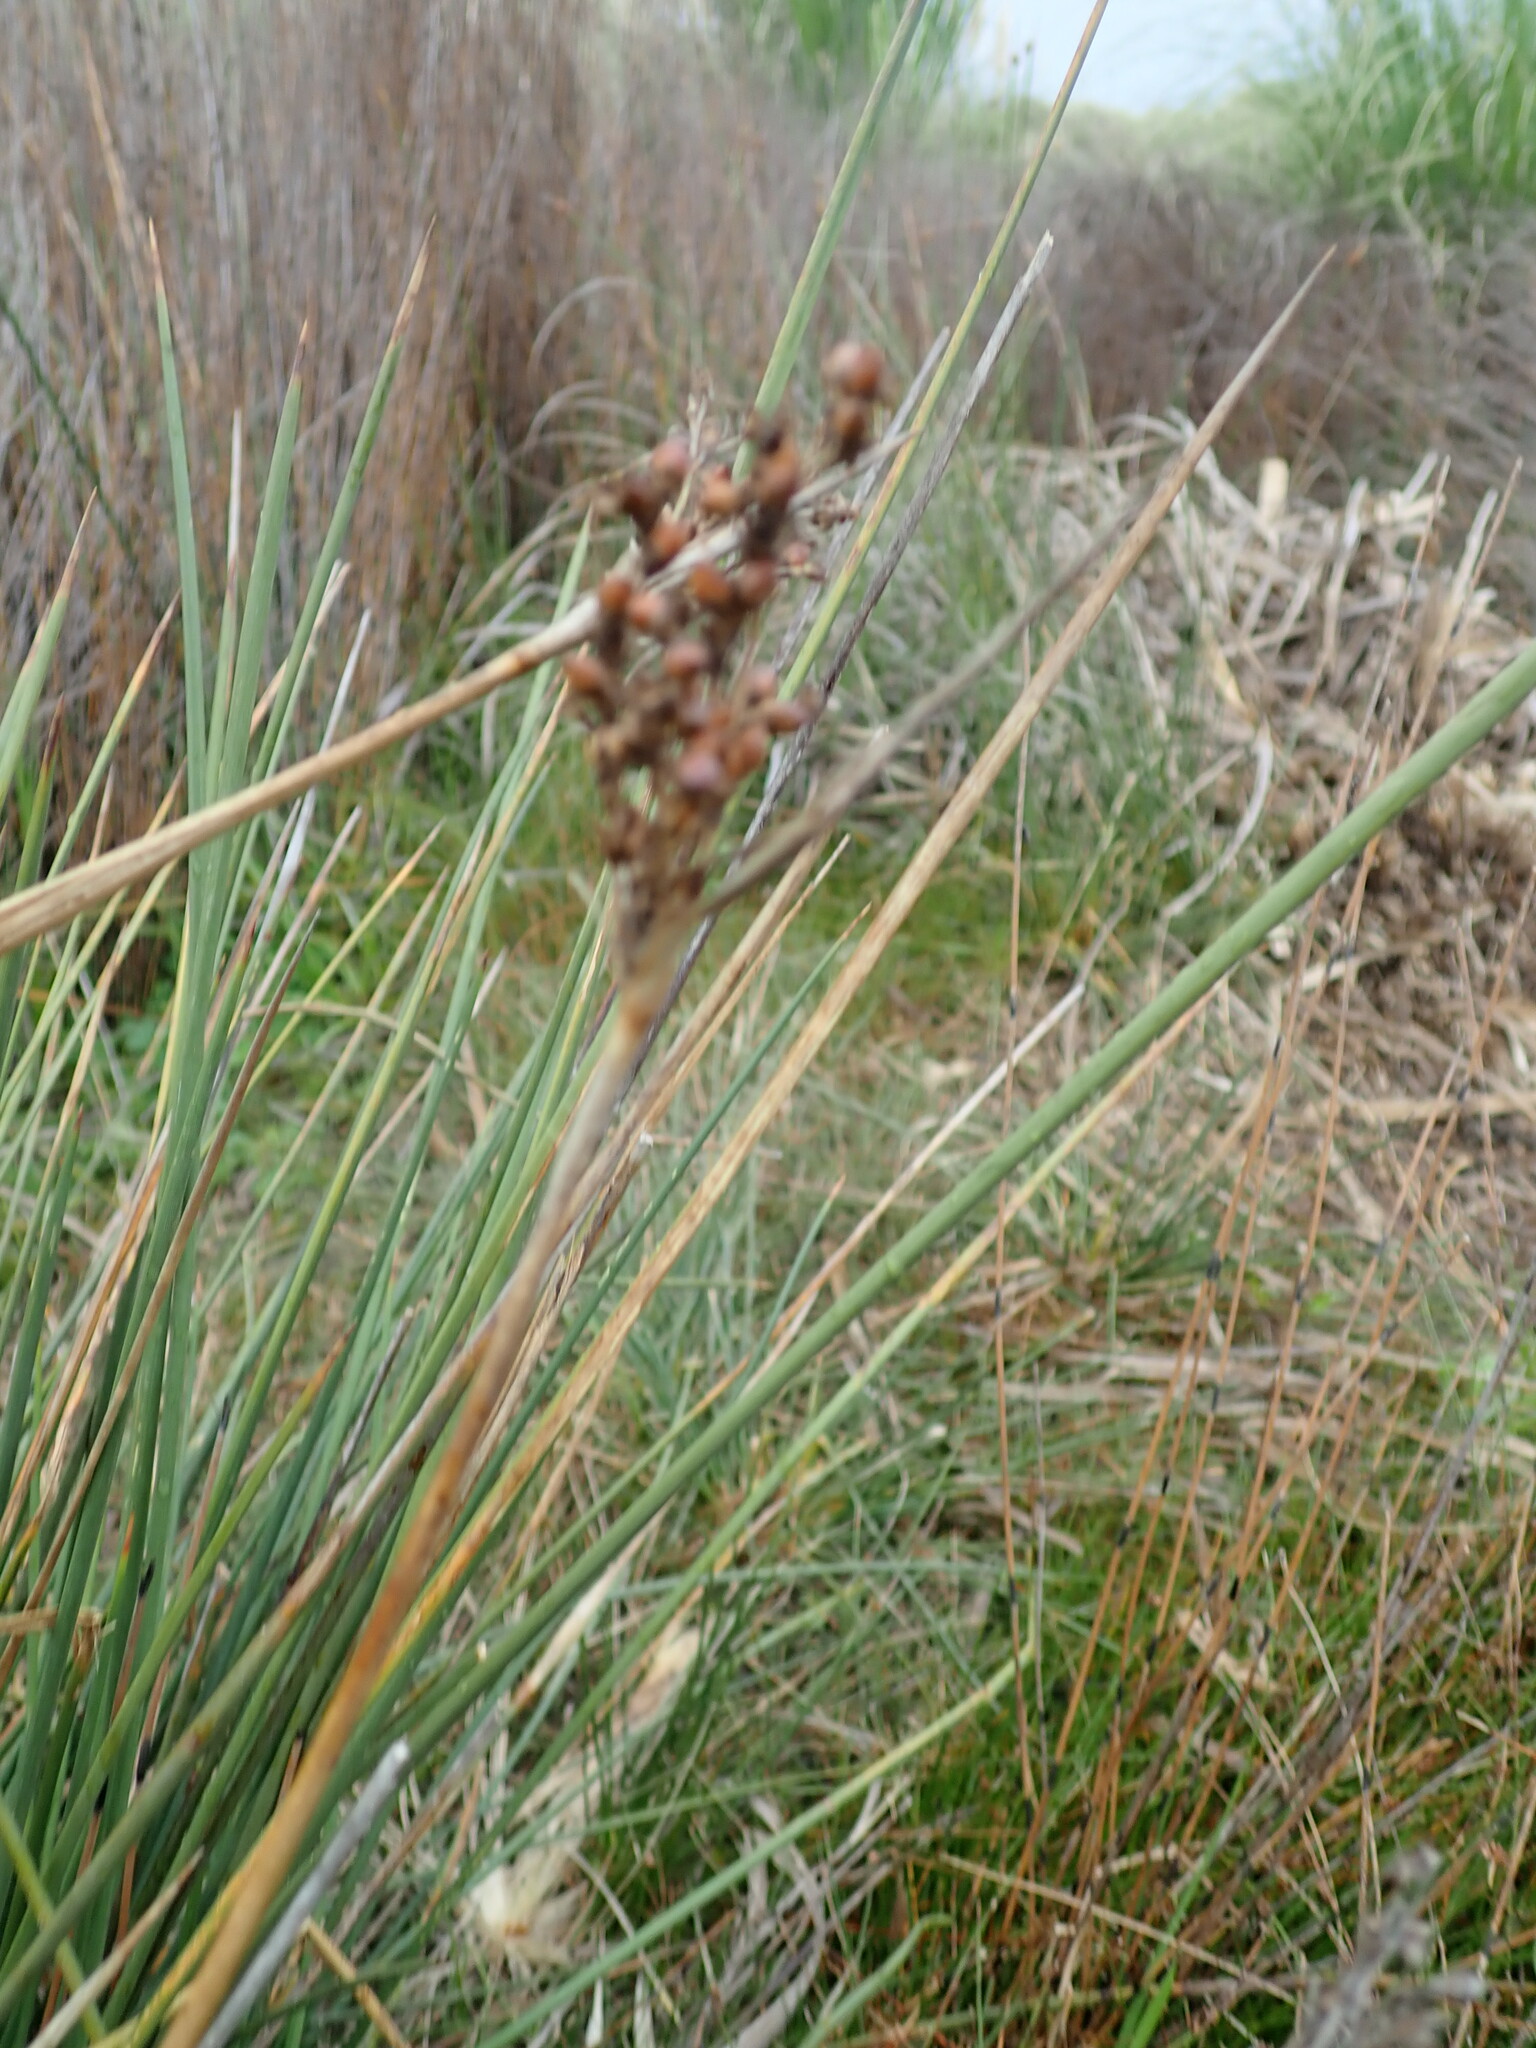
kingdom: Plantae
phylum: Tracheophyta
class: Liliopsida
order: Poales
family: Juncaceae
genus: Juncus
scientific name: Juncus acutus
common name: Sharp rush
